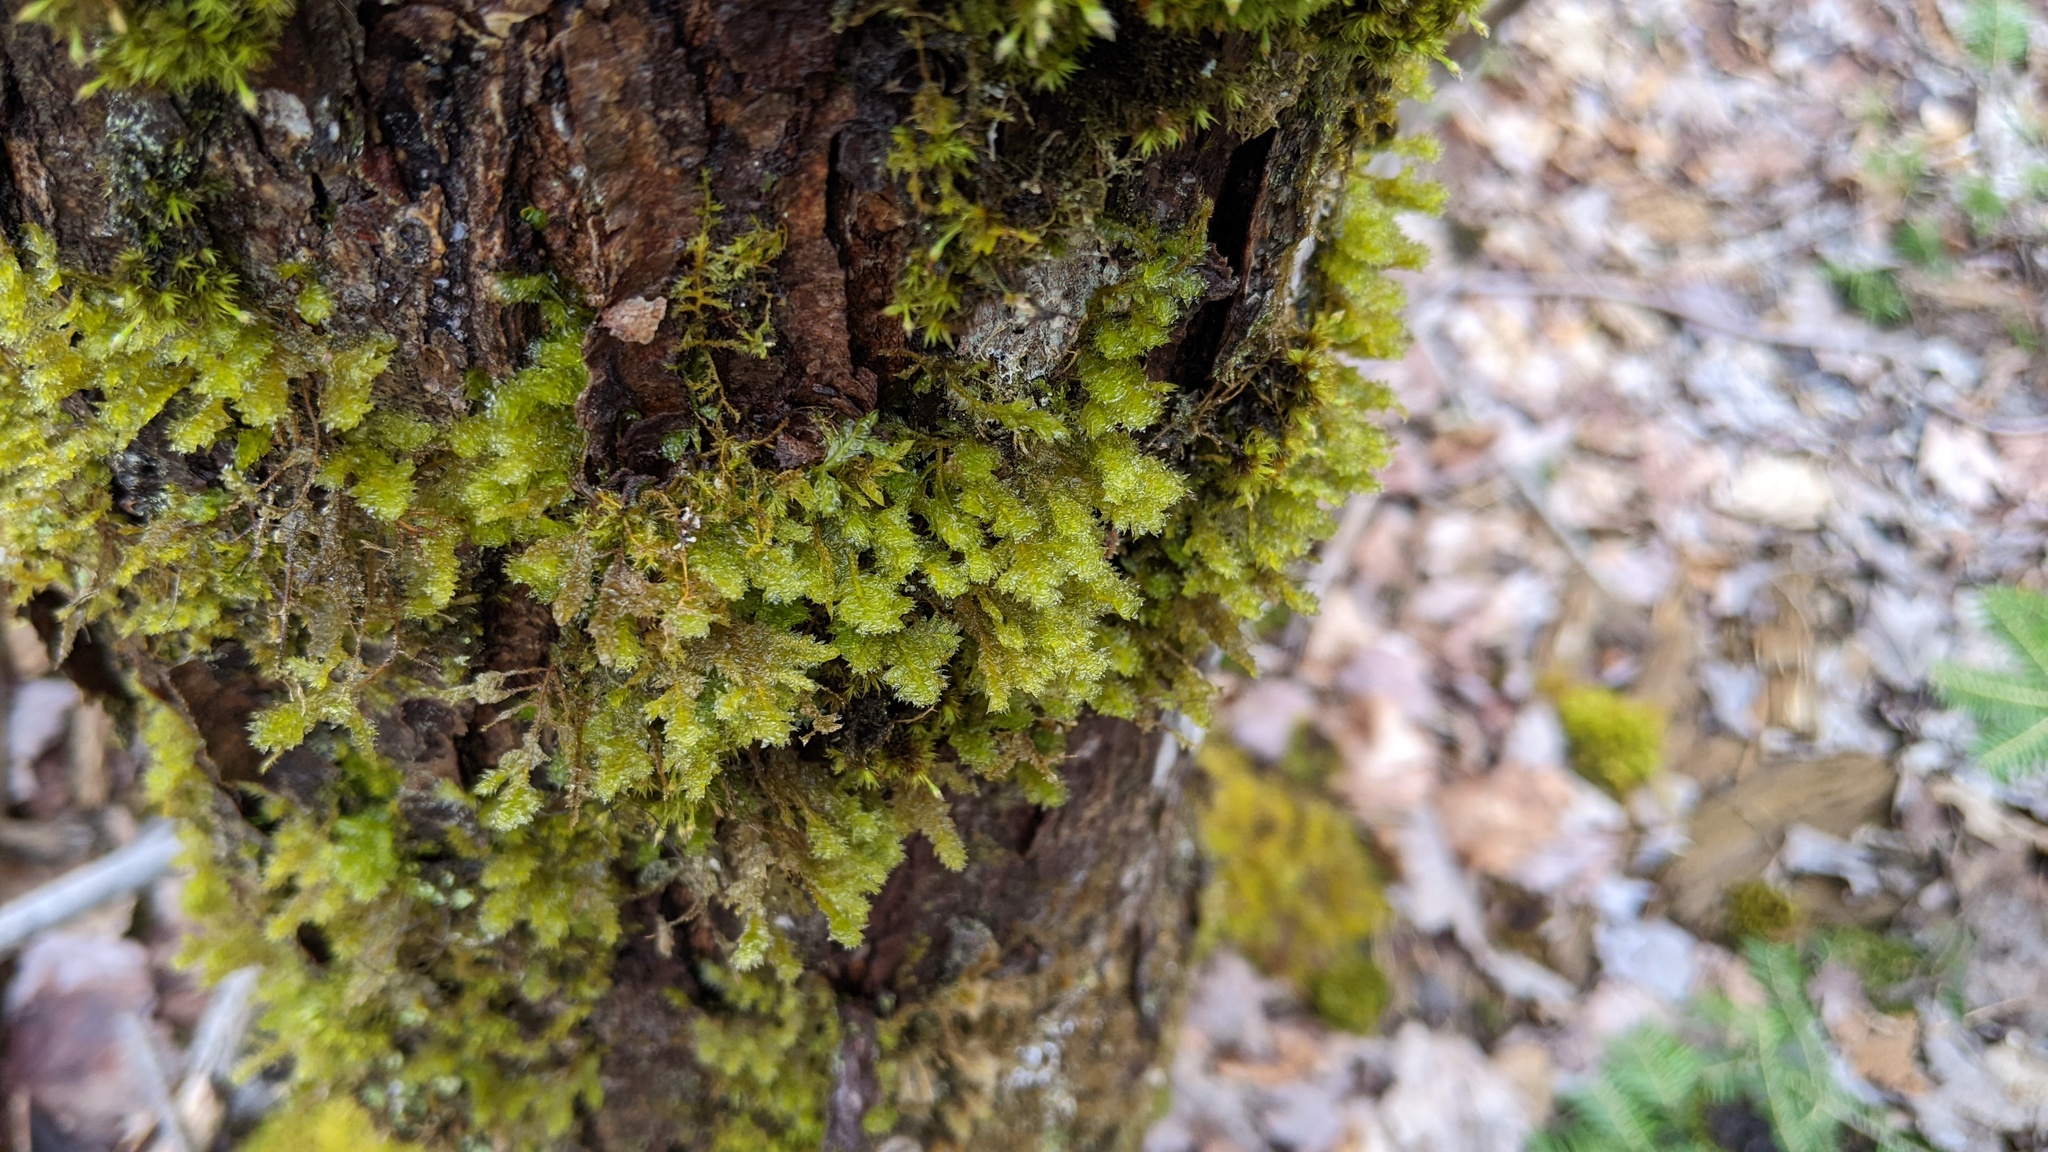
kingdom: Plantae
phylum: Bryophyta
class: Bryopsida
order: Hypnales
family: Neckeraceae
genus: Neckera
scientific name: Neckera pennata
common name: Feathery neckera
